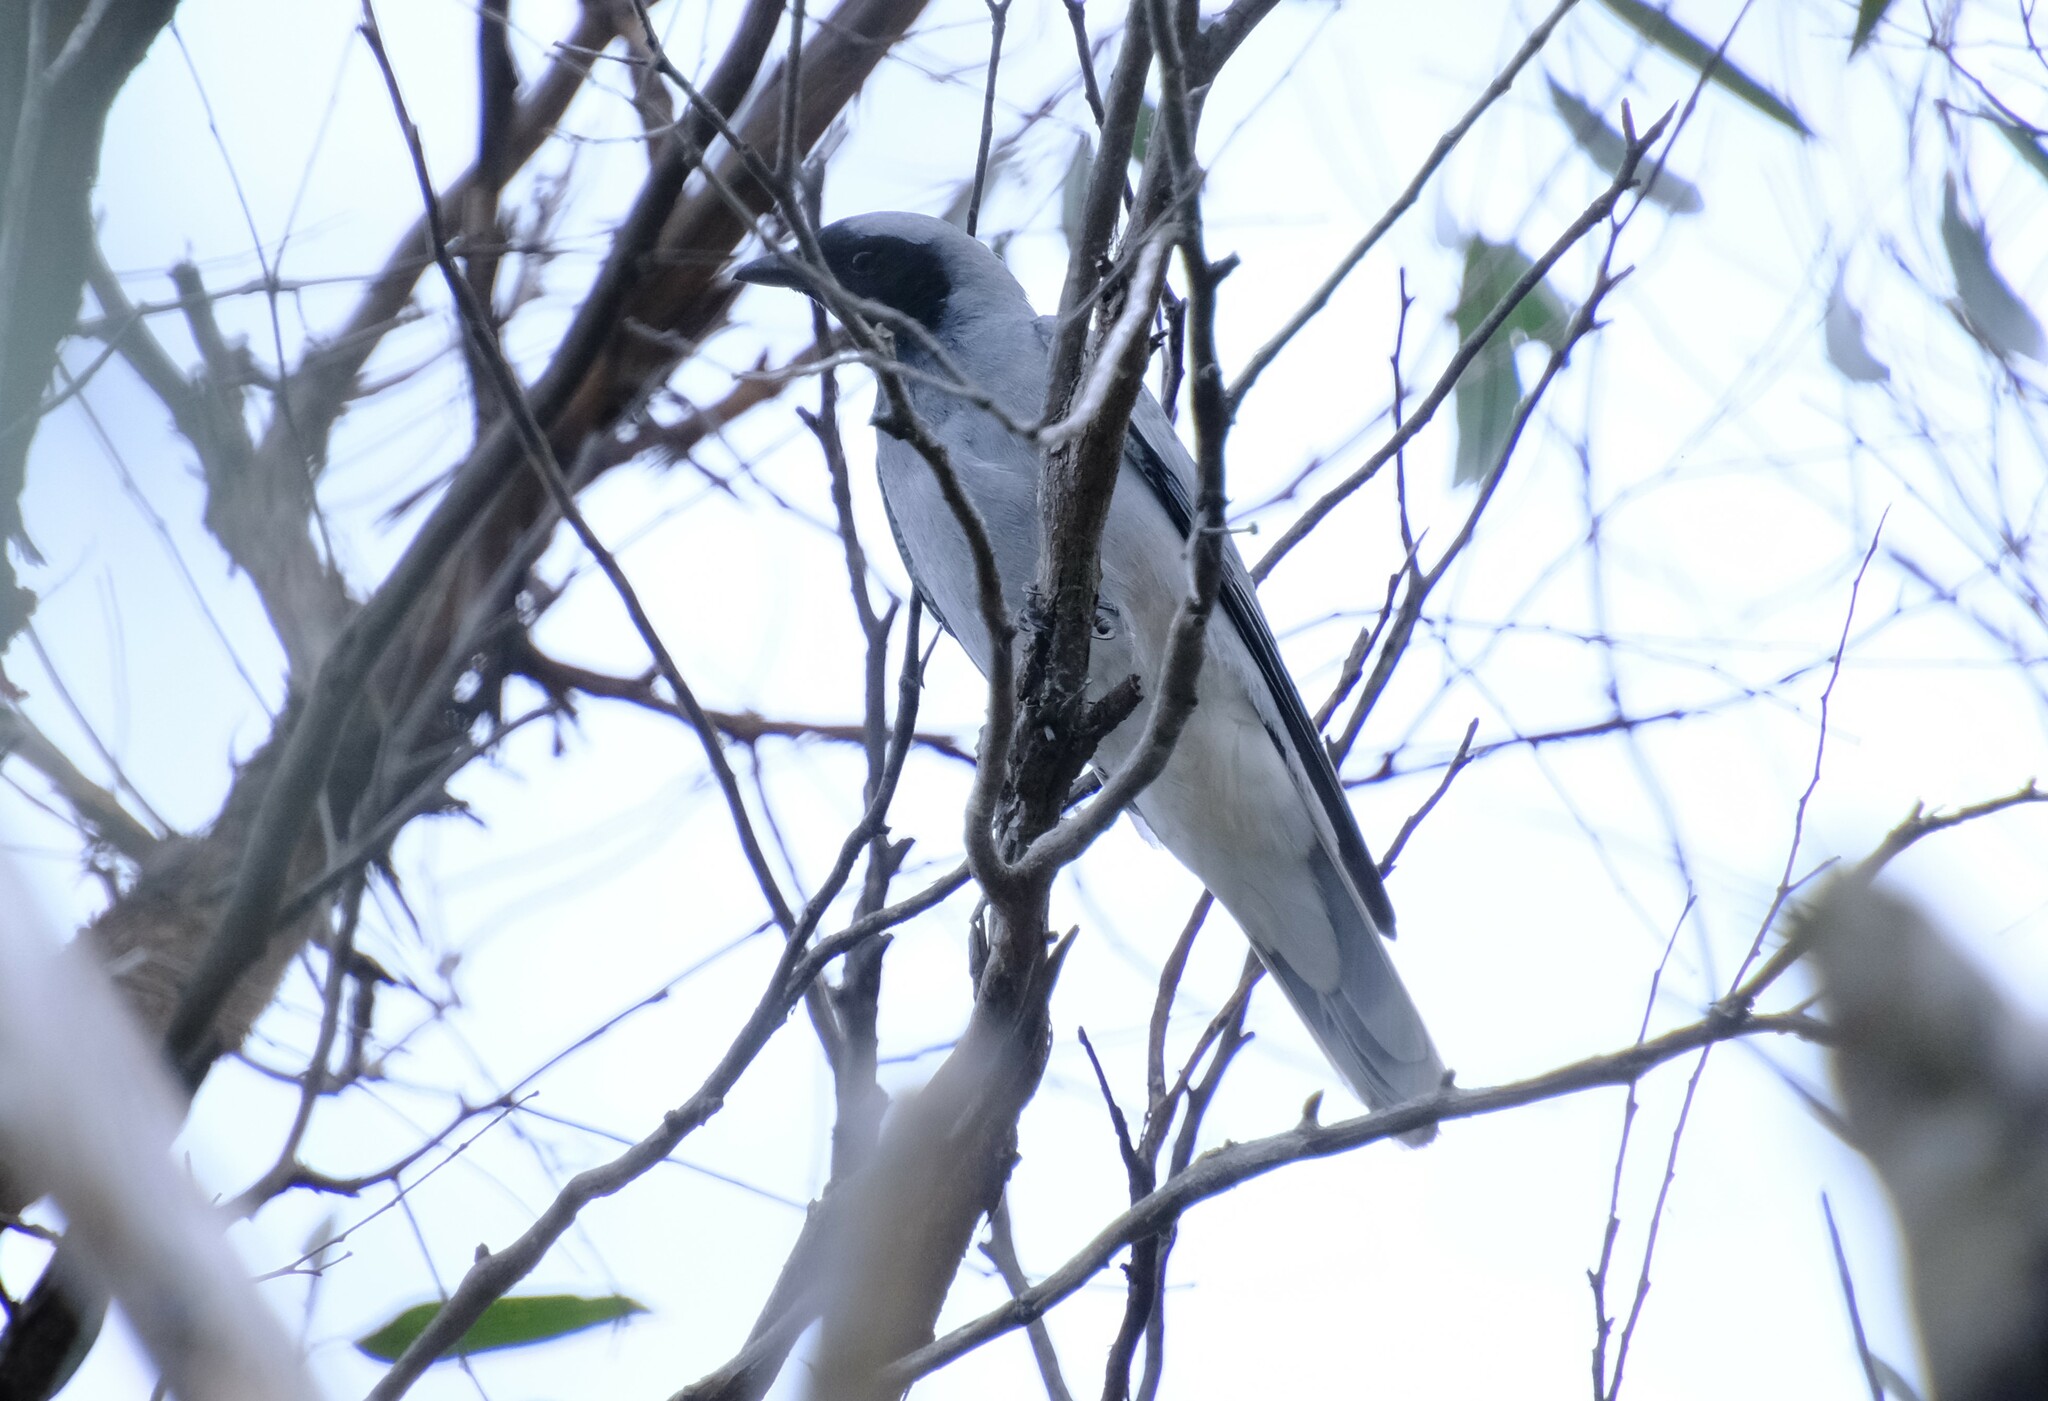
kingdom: Animalia
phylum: Chordata
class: Aves
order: Passeriformes
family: Campephagidae
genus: Coracina
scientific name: Coracina novaehollandiae
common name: Black-faced cuckooshrike
